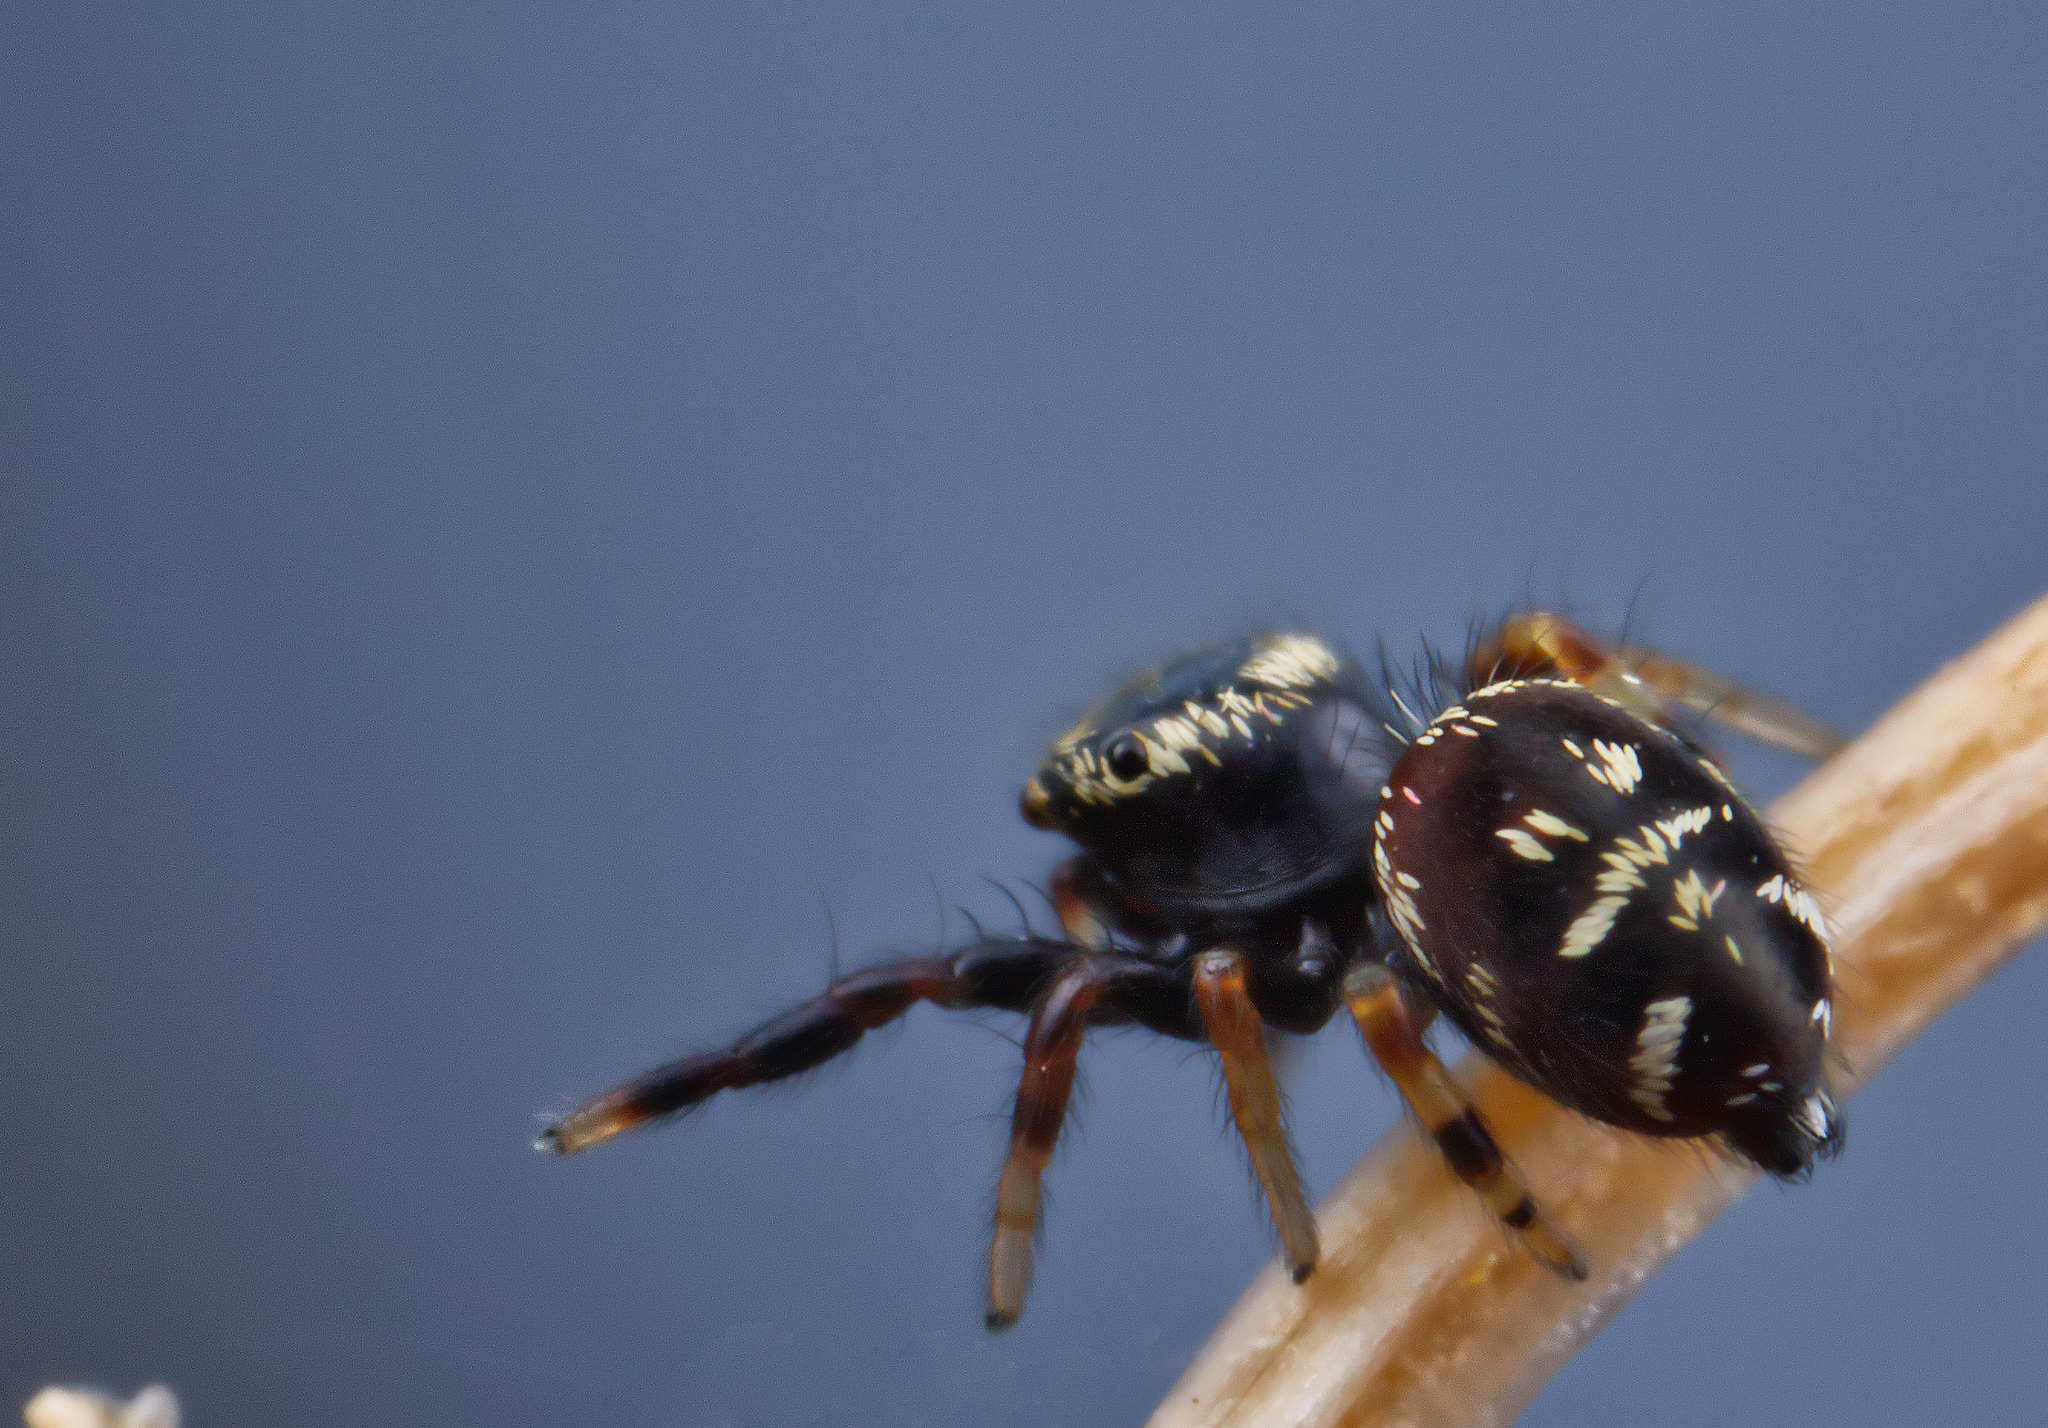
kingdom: Animalia
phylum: Arthropoda
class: Arachnida
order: Araneae
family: Salticidae
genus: Paraphidippus
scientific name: Paraphidippus aurantius
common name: Jumping spiders
